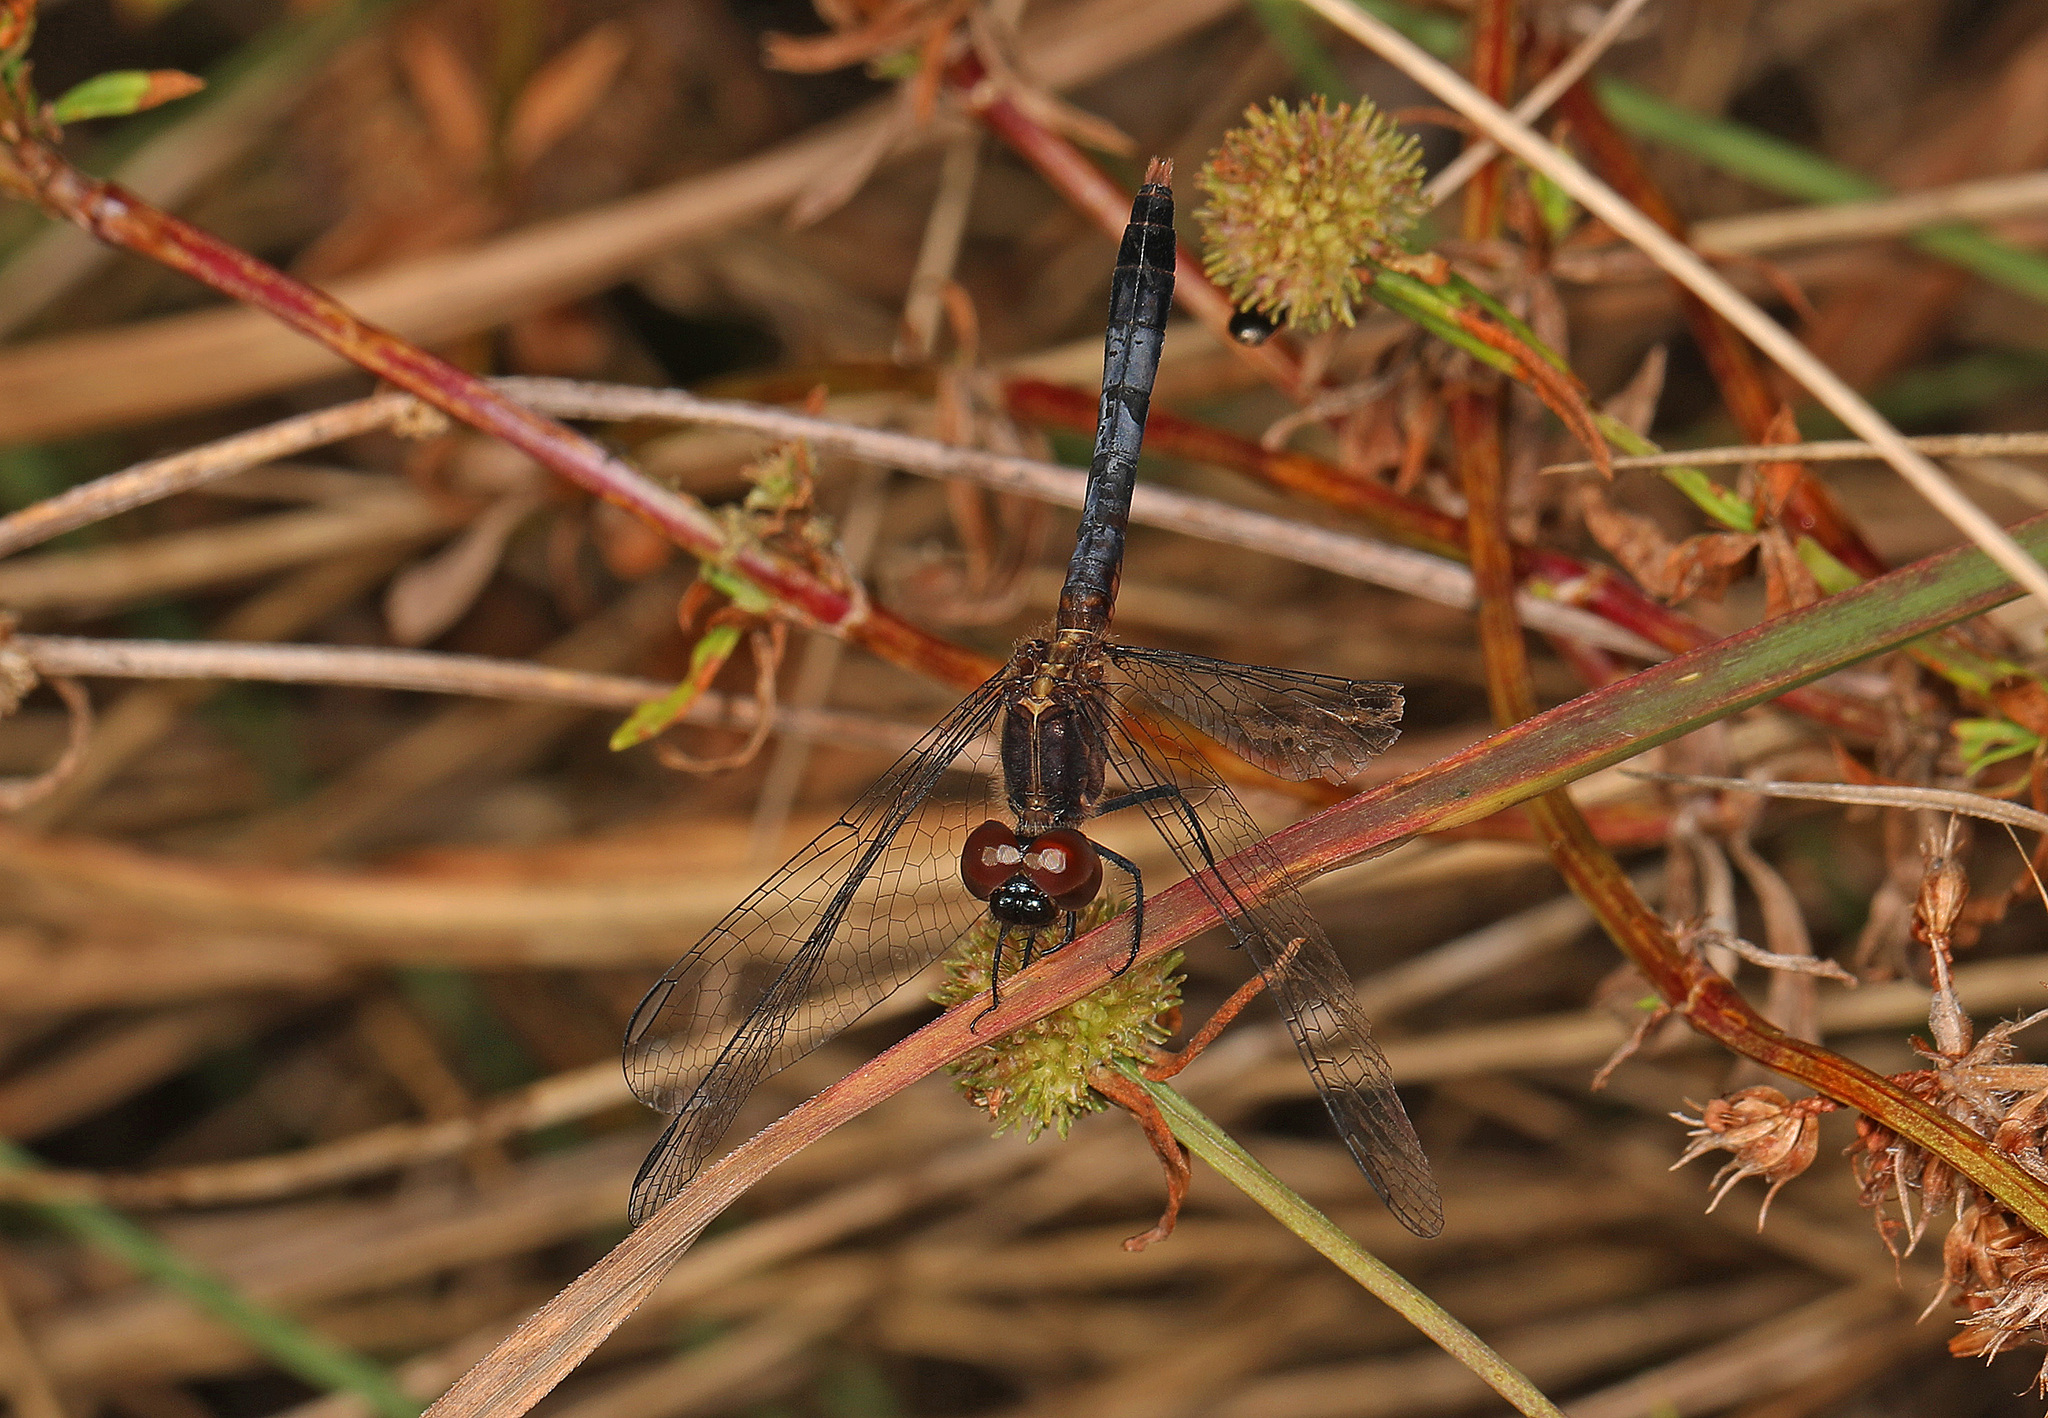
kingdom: Animalia
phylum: Arthropoda
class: Insecta
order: Odonata
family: Libellulidae
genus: Erythrodiplax
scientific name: Erythrodiplax minuscula
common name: Little blue dragonlet
